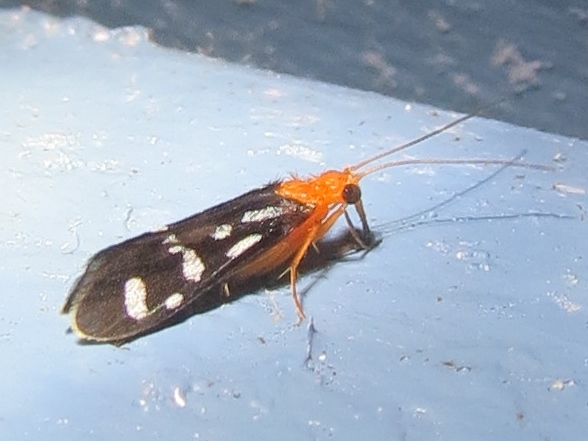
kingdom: Animalia
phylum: Arthropoda
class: Insecta
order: Trichoptera
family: Philopotamidae
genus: Chimarra
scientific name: Chimarra albomaculata
